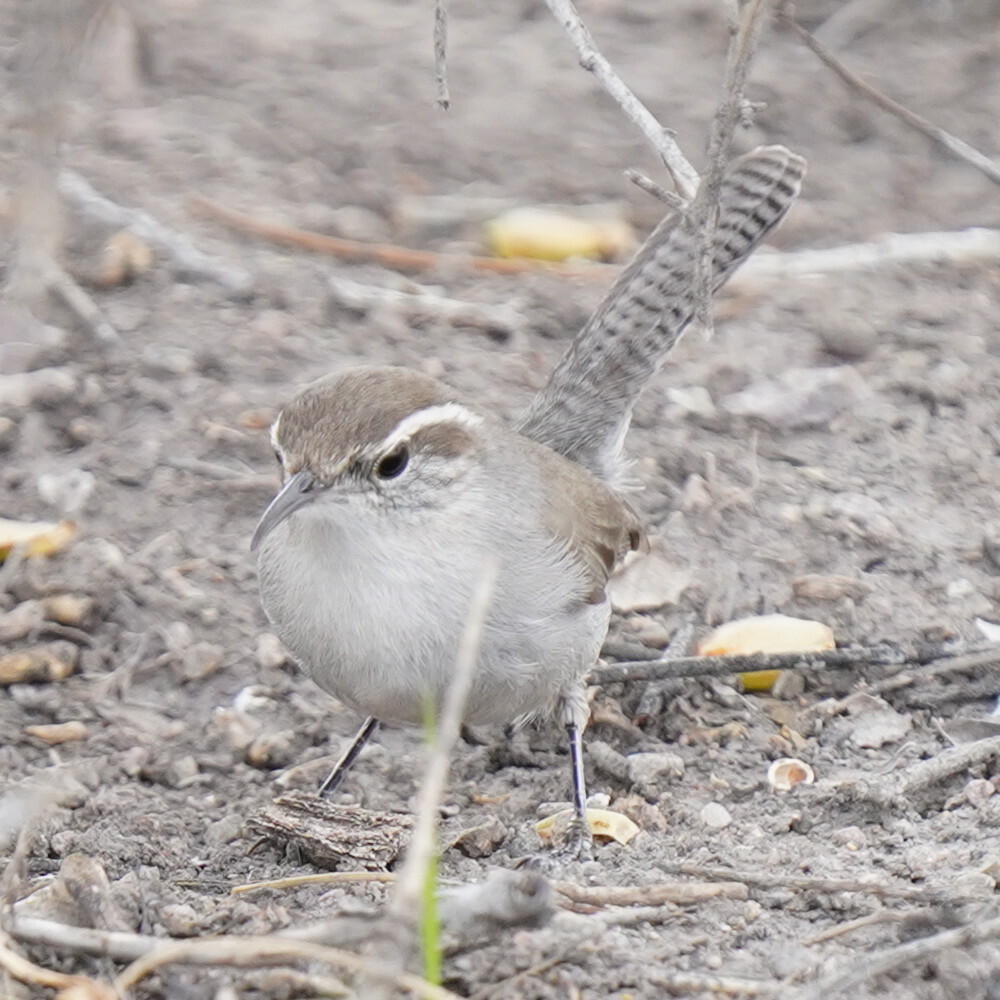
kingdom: Animalia
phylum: Chordata
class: Aves
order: Passeriformes
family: Troglodytidae
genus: Thryomanes
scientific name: Thryomanes bewickii
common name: Bewick's wren
